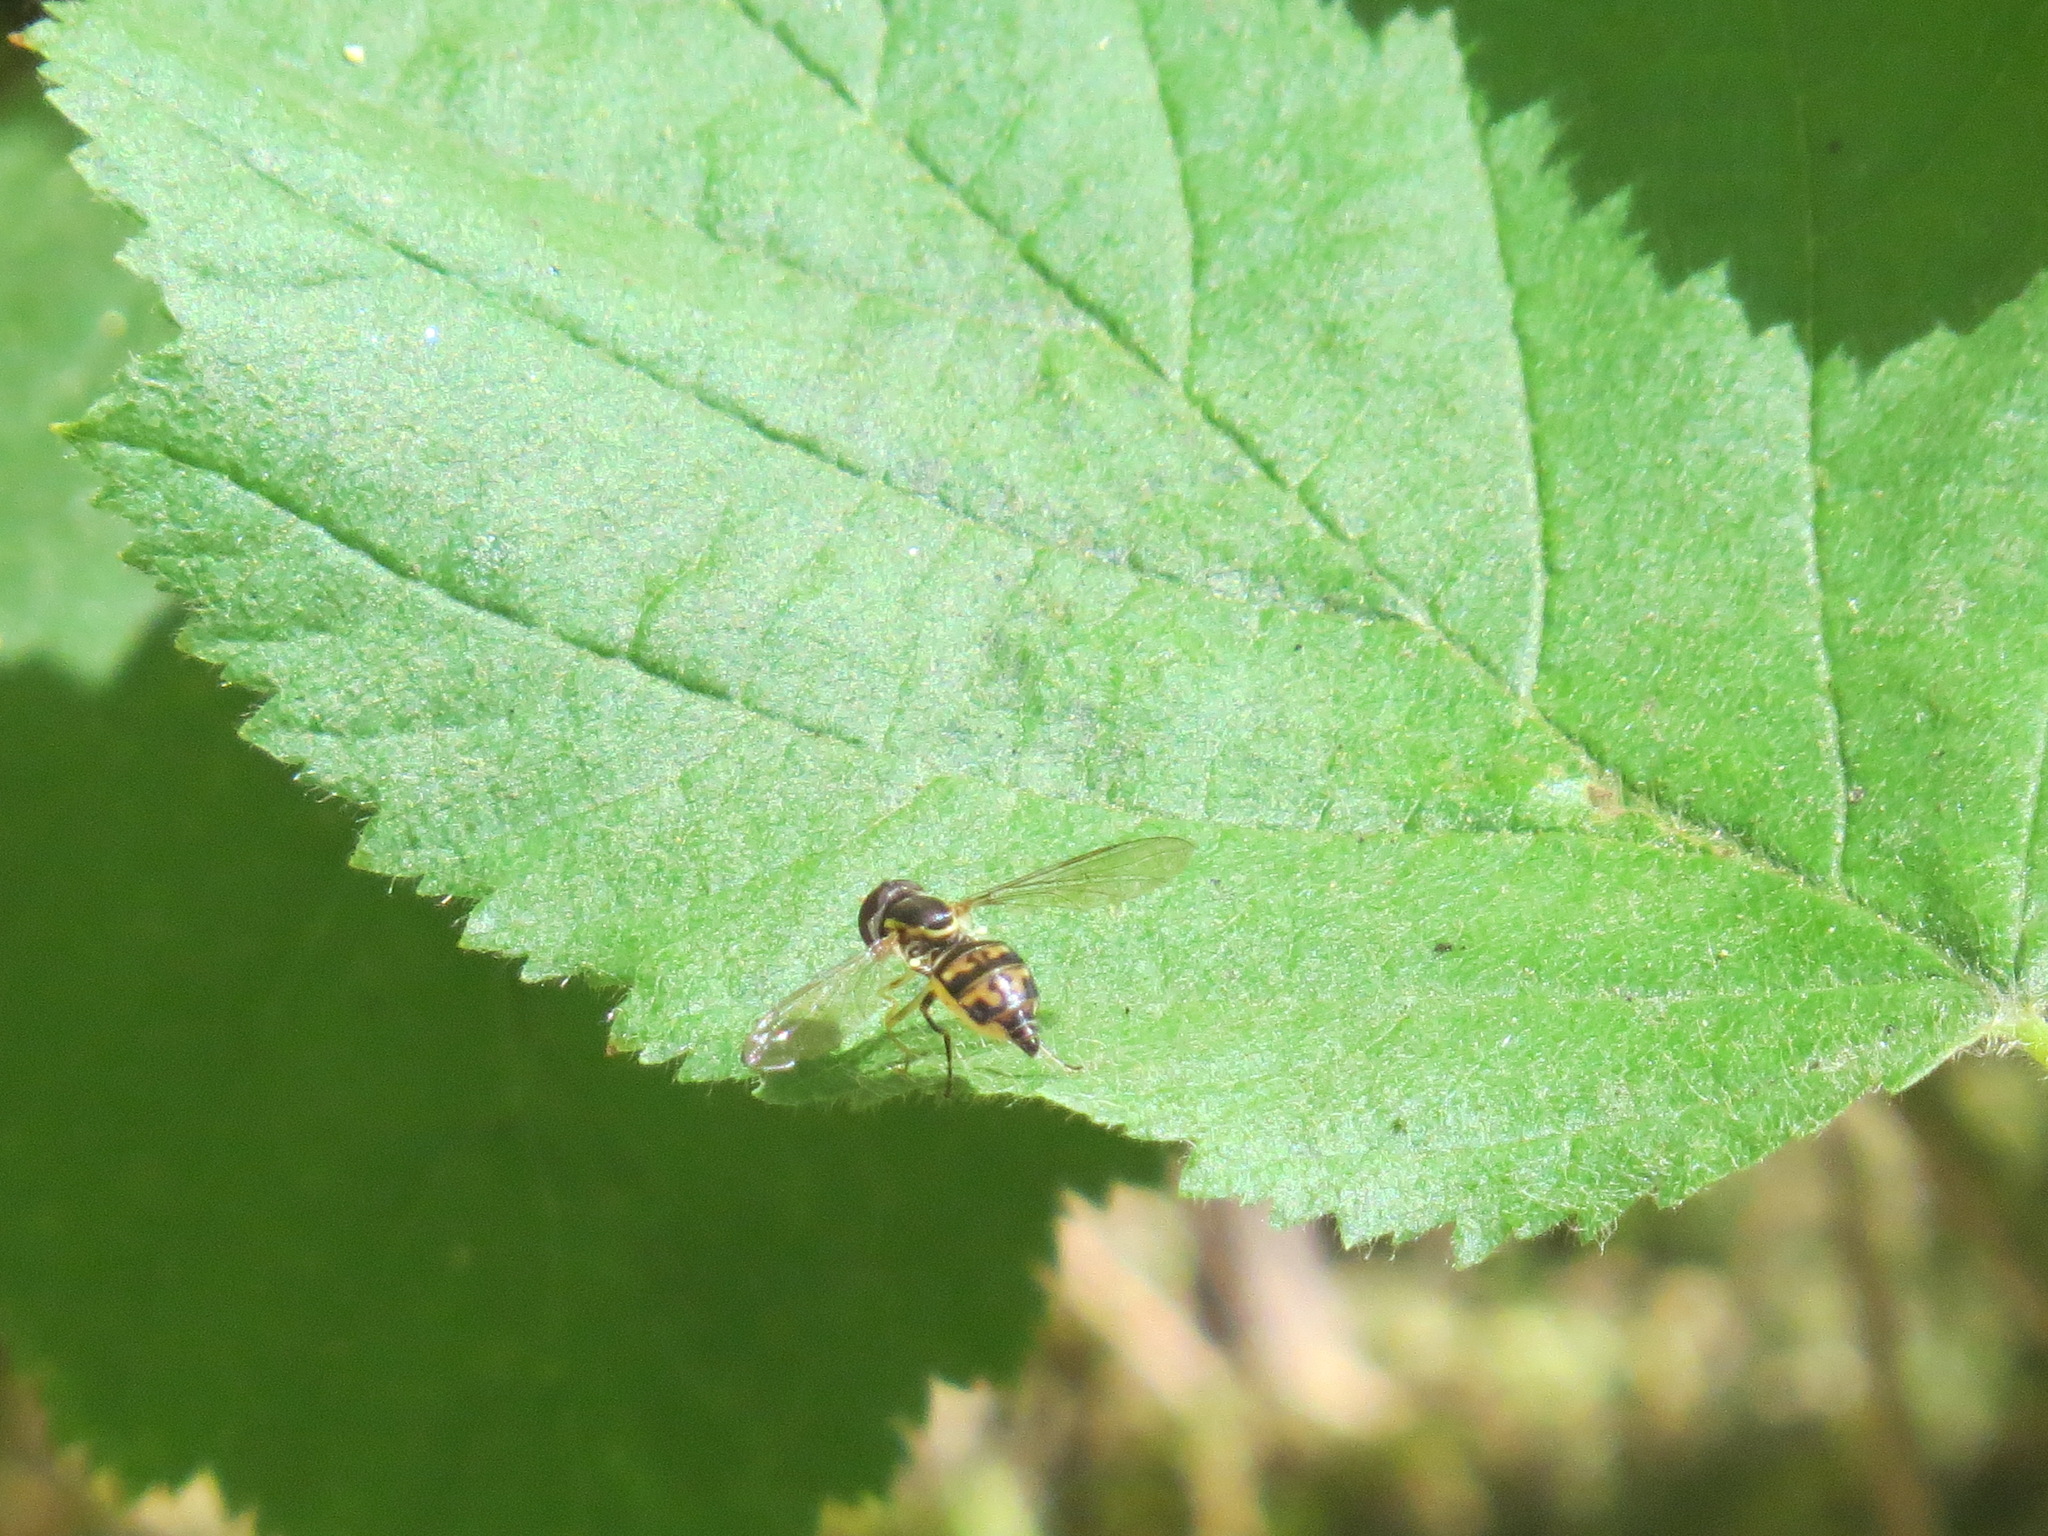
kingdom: Animalia
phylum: Arthropoda
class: Insecta
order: Diptera
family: Syrphidae
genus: Toxomerus
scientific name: Toxomerus occidentalis
